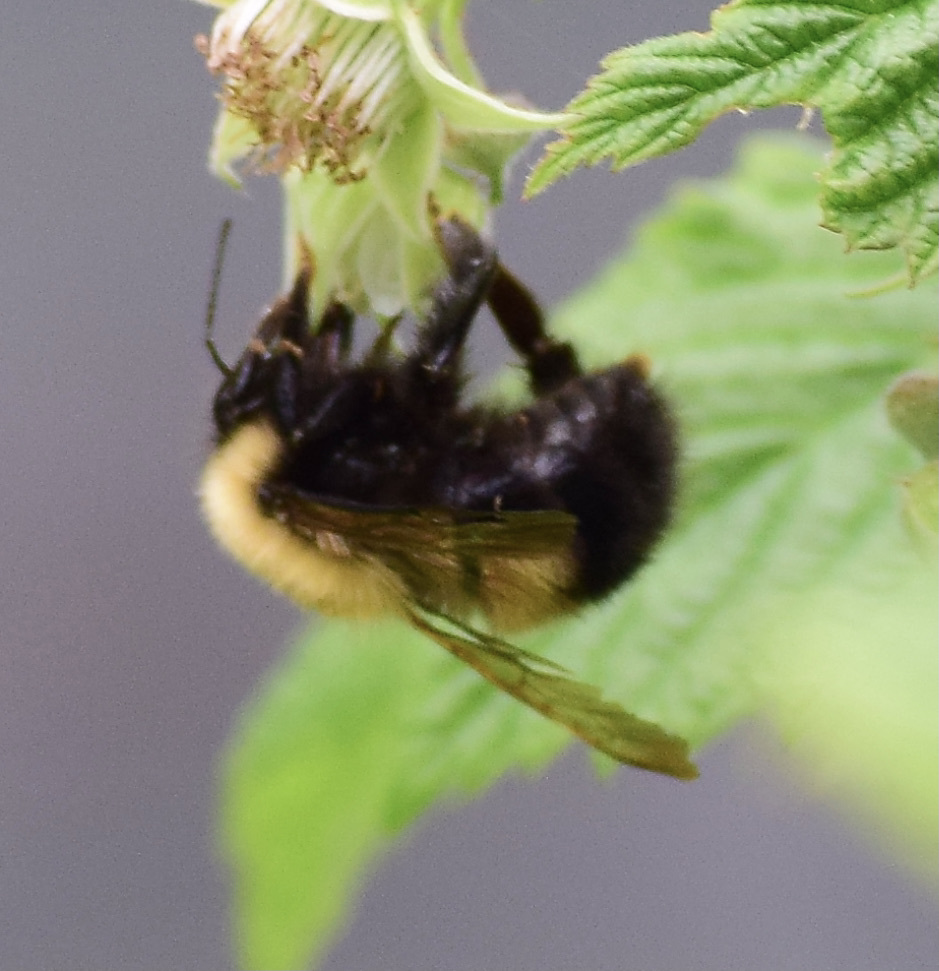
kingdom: Animalia
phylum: Arthropoda
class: Insecta
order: Hymenoptera
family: Apidae
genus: Bombus
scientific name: Bombus perplexus
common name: Confusing bumble bee
